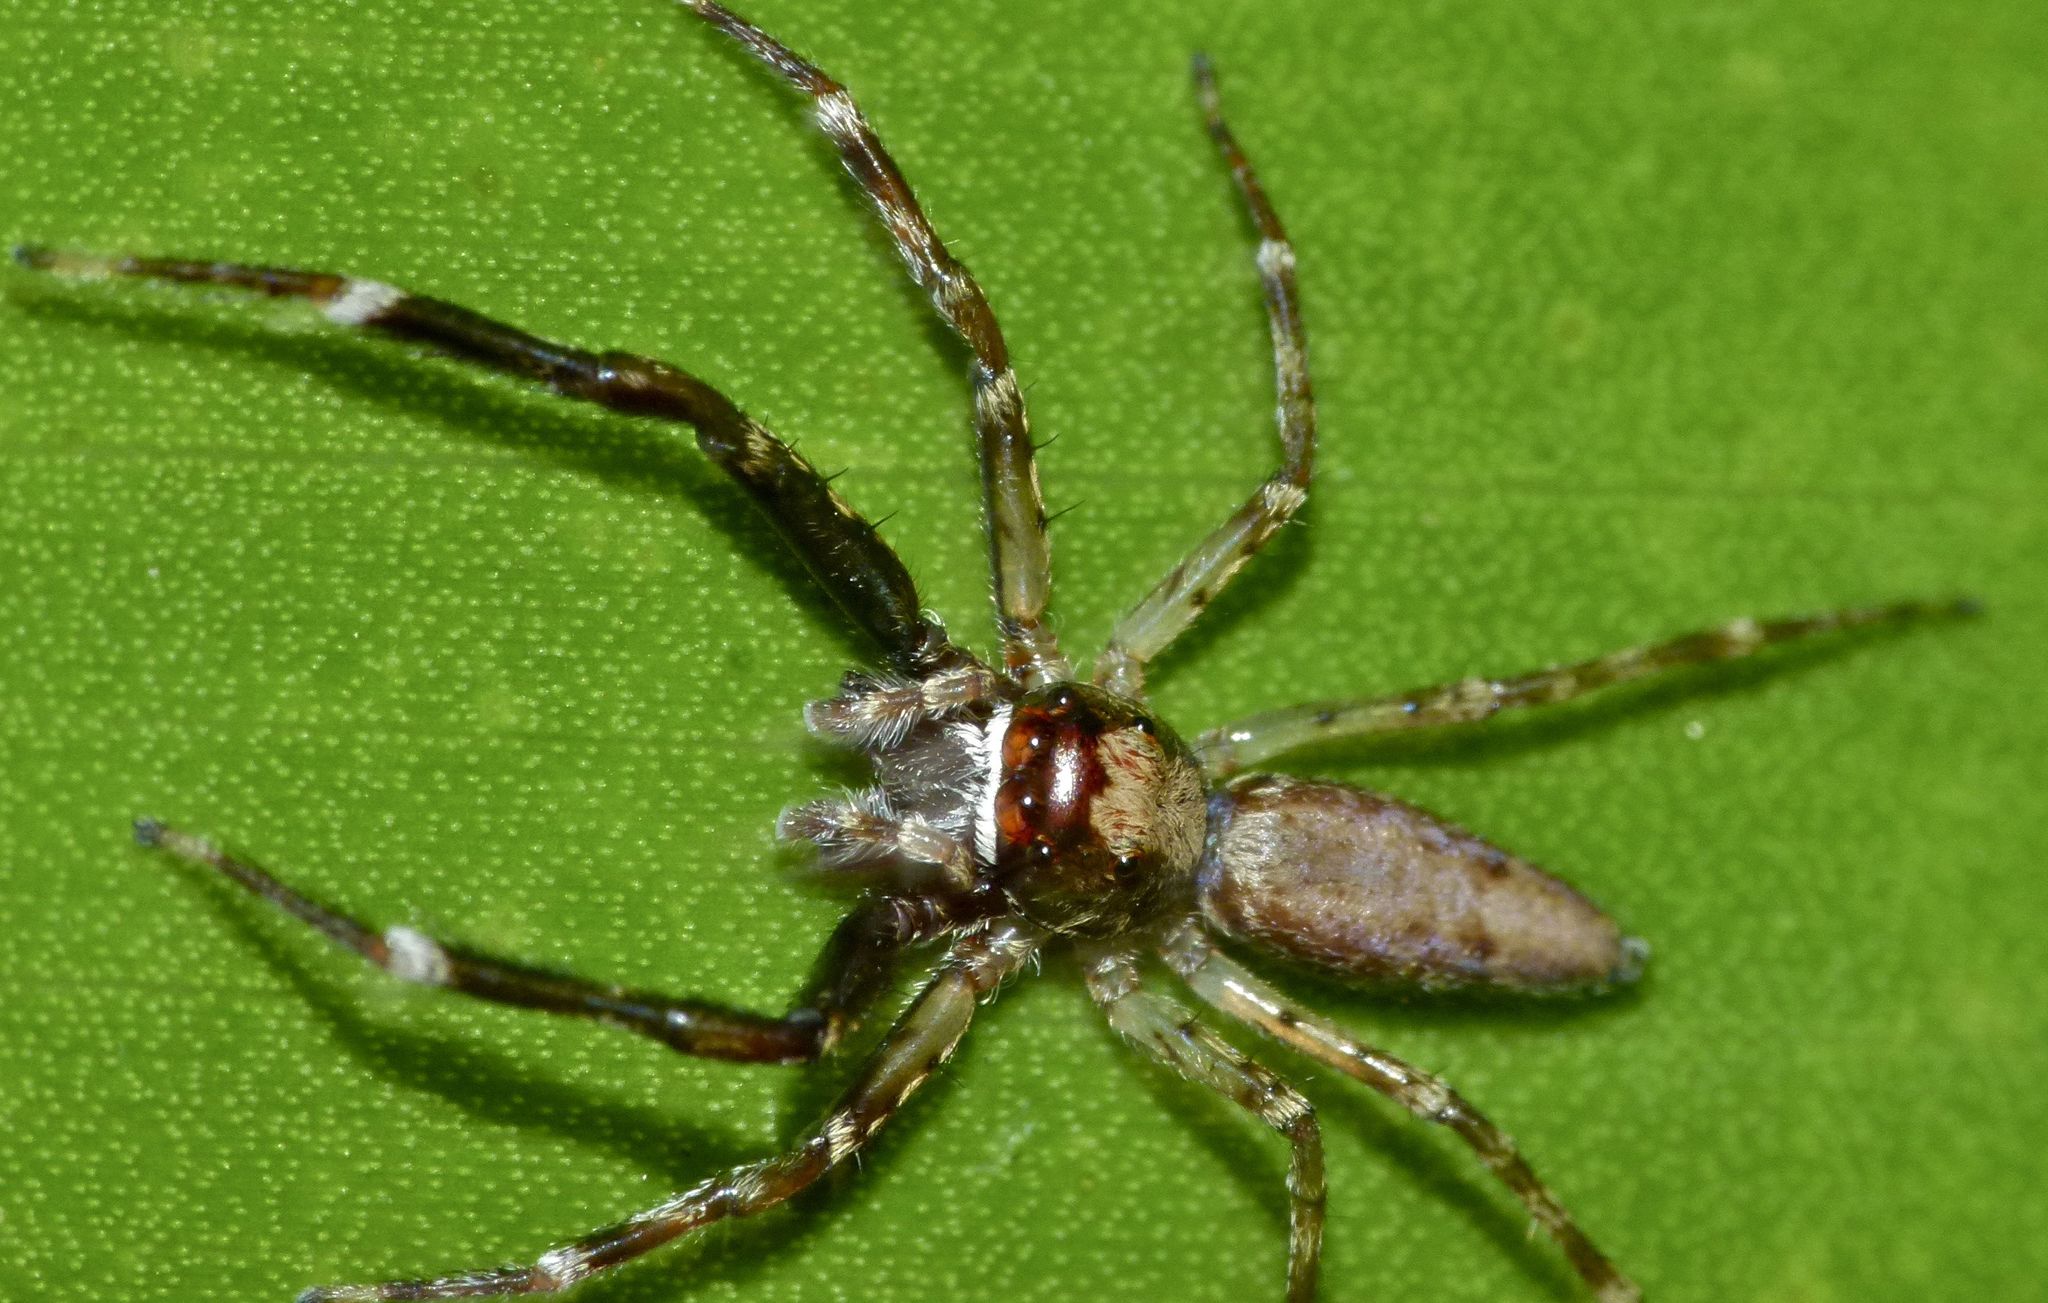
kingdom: Animalia
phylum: Arthropoda
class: Arachnida
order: Araneae
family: Salticidae
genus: Helpis
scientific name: Helpis minitabunda
